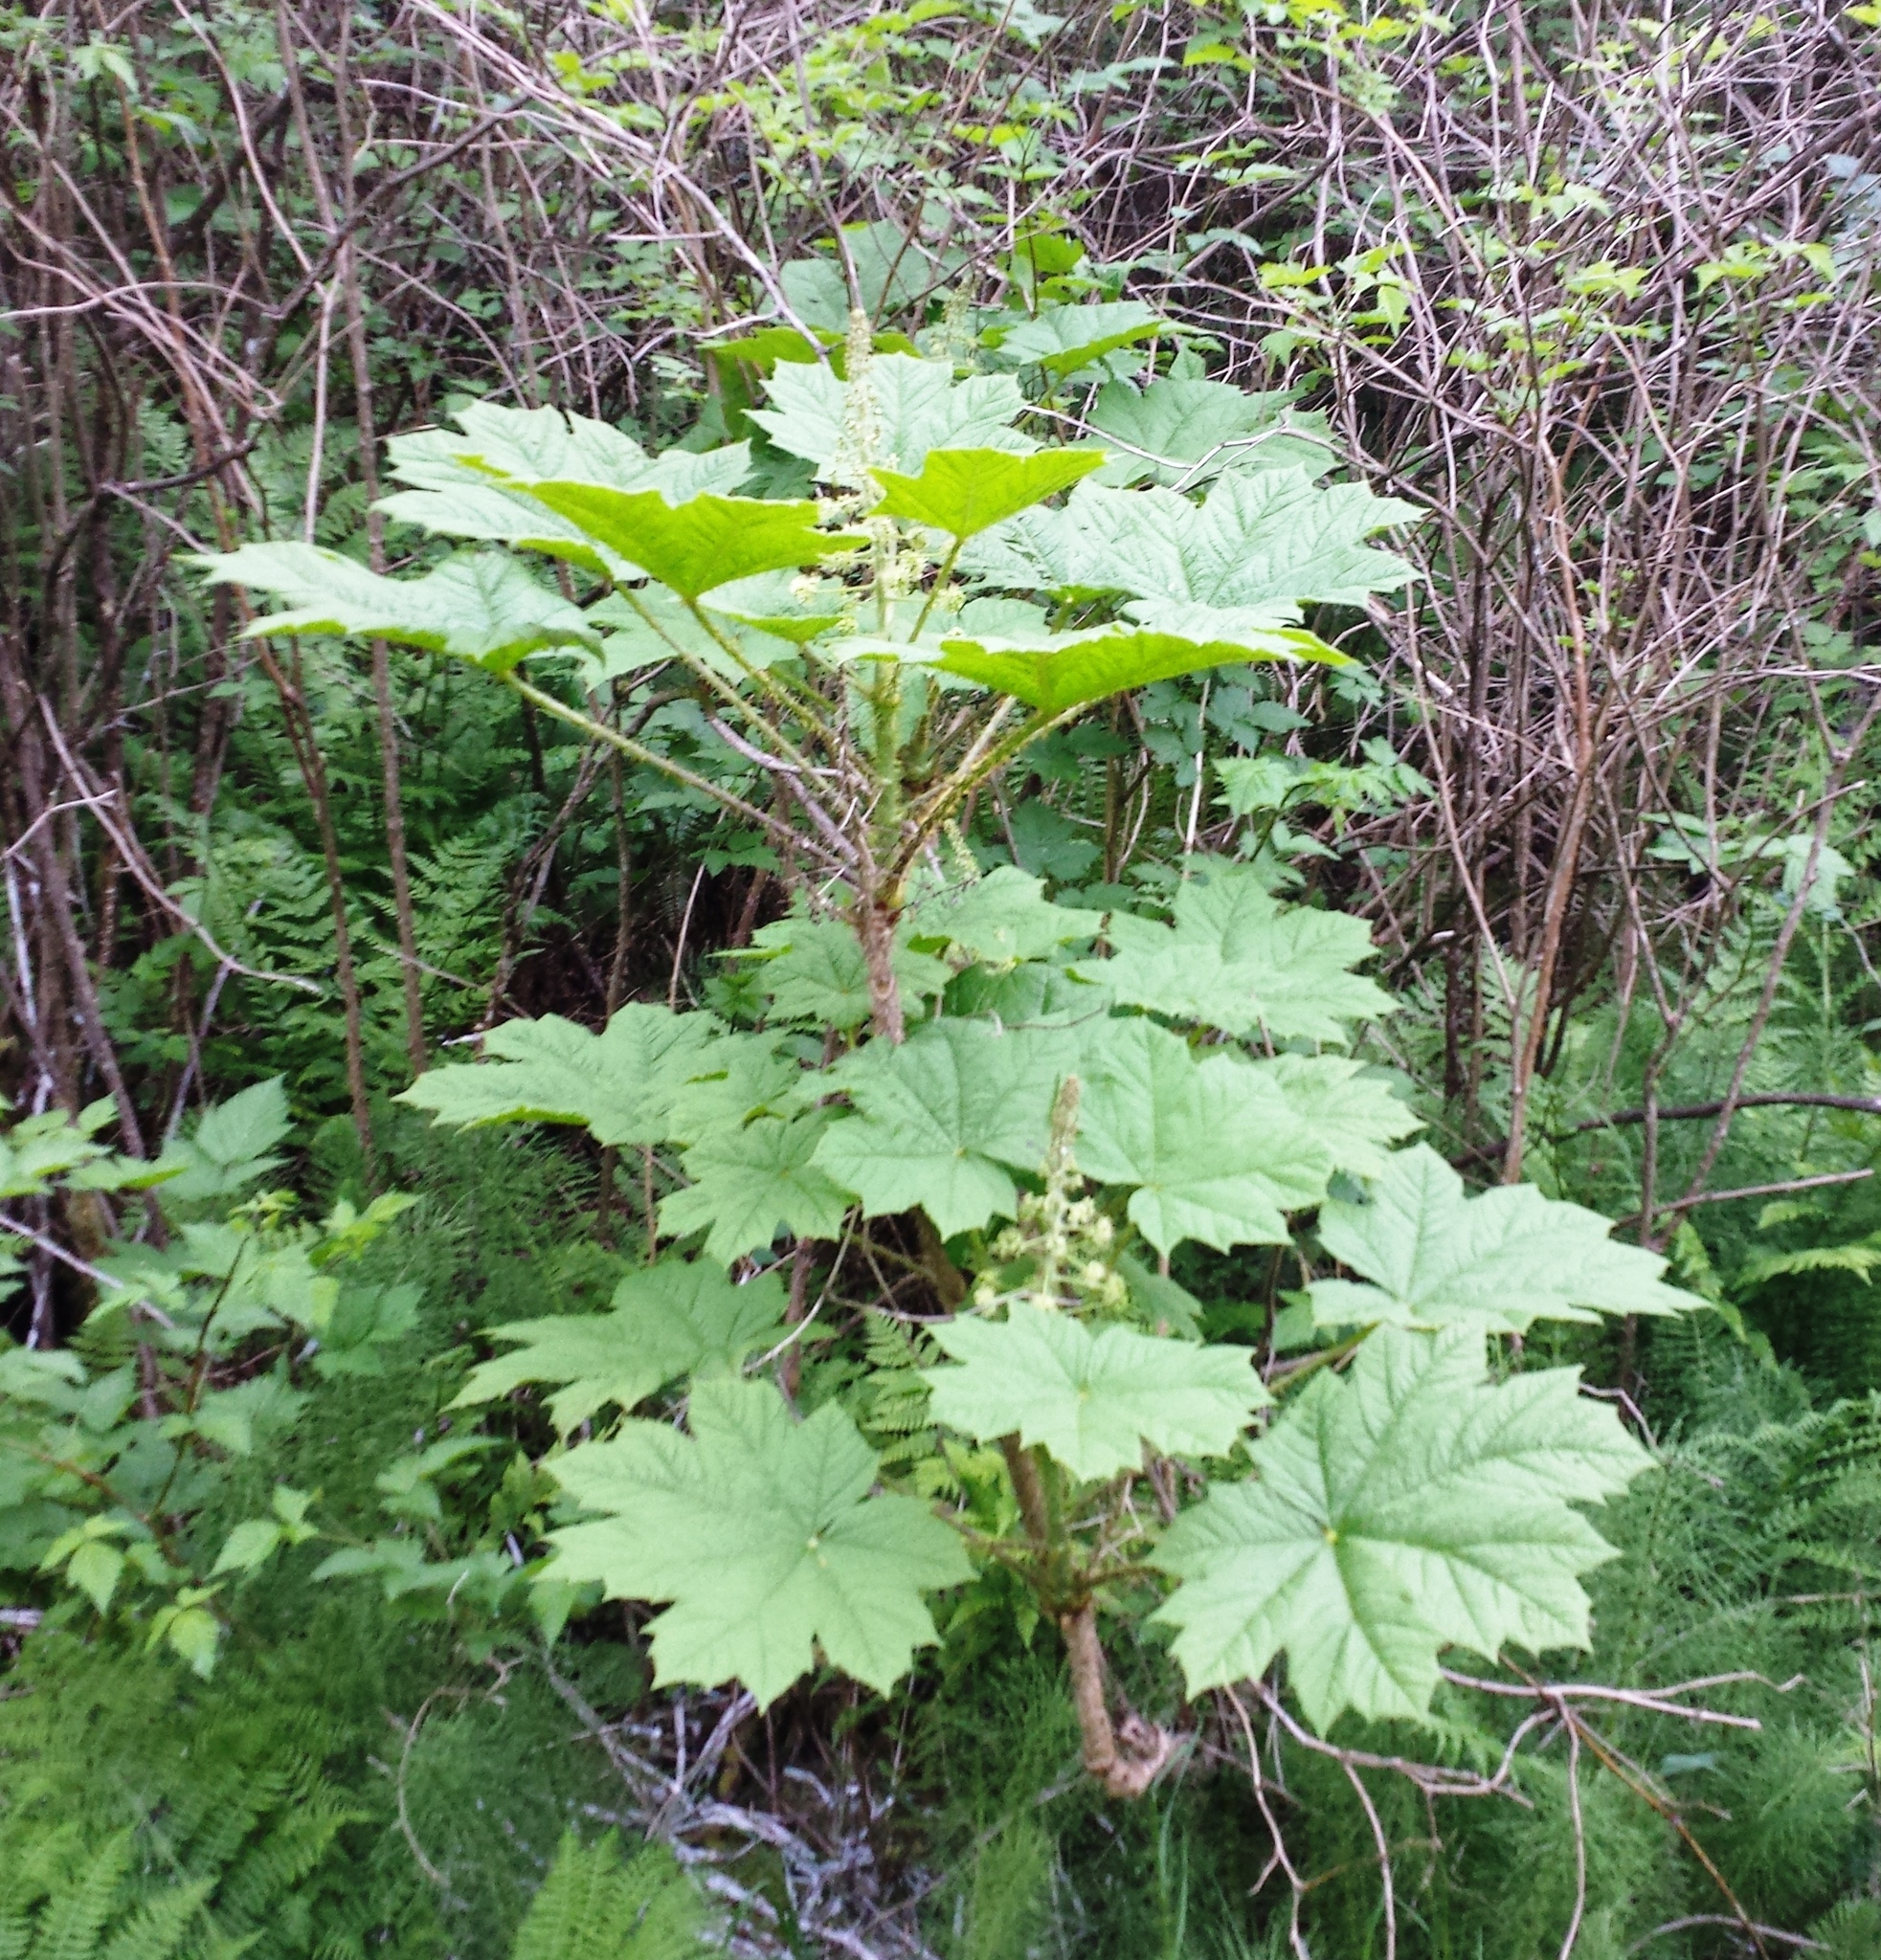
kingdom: Plantae
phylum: Tracheophyta
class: Magnoliopsida
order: Apiales
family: Araliaceae
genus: Oplopanax
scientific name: Oplopanax horridus
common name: Devil's walking-stick
